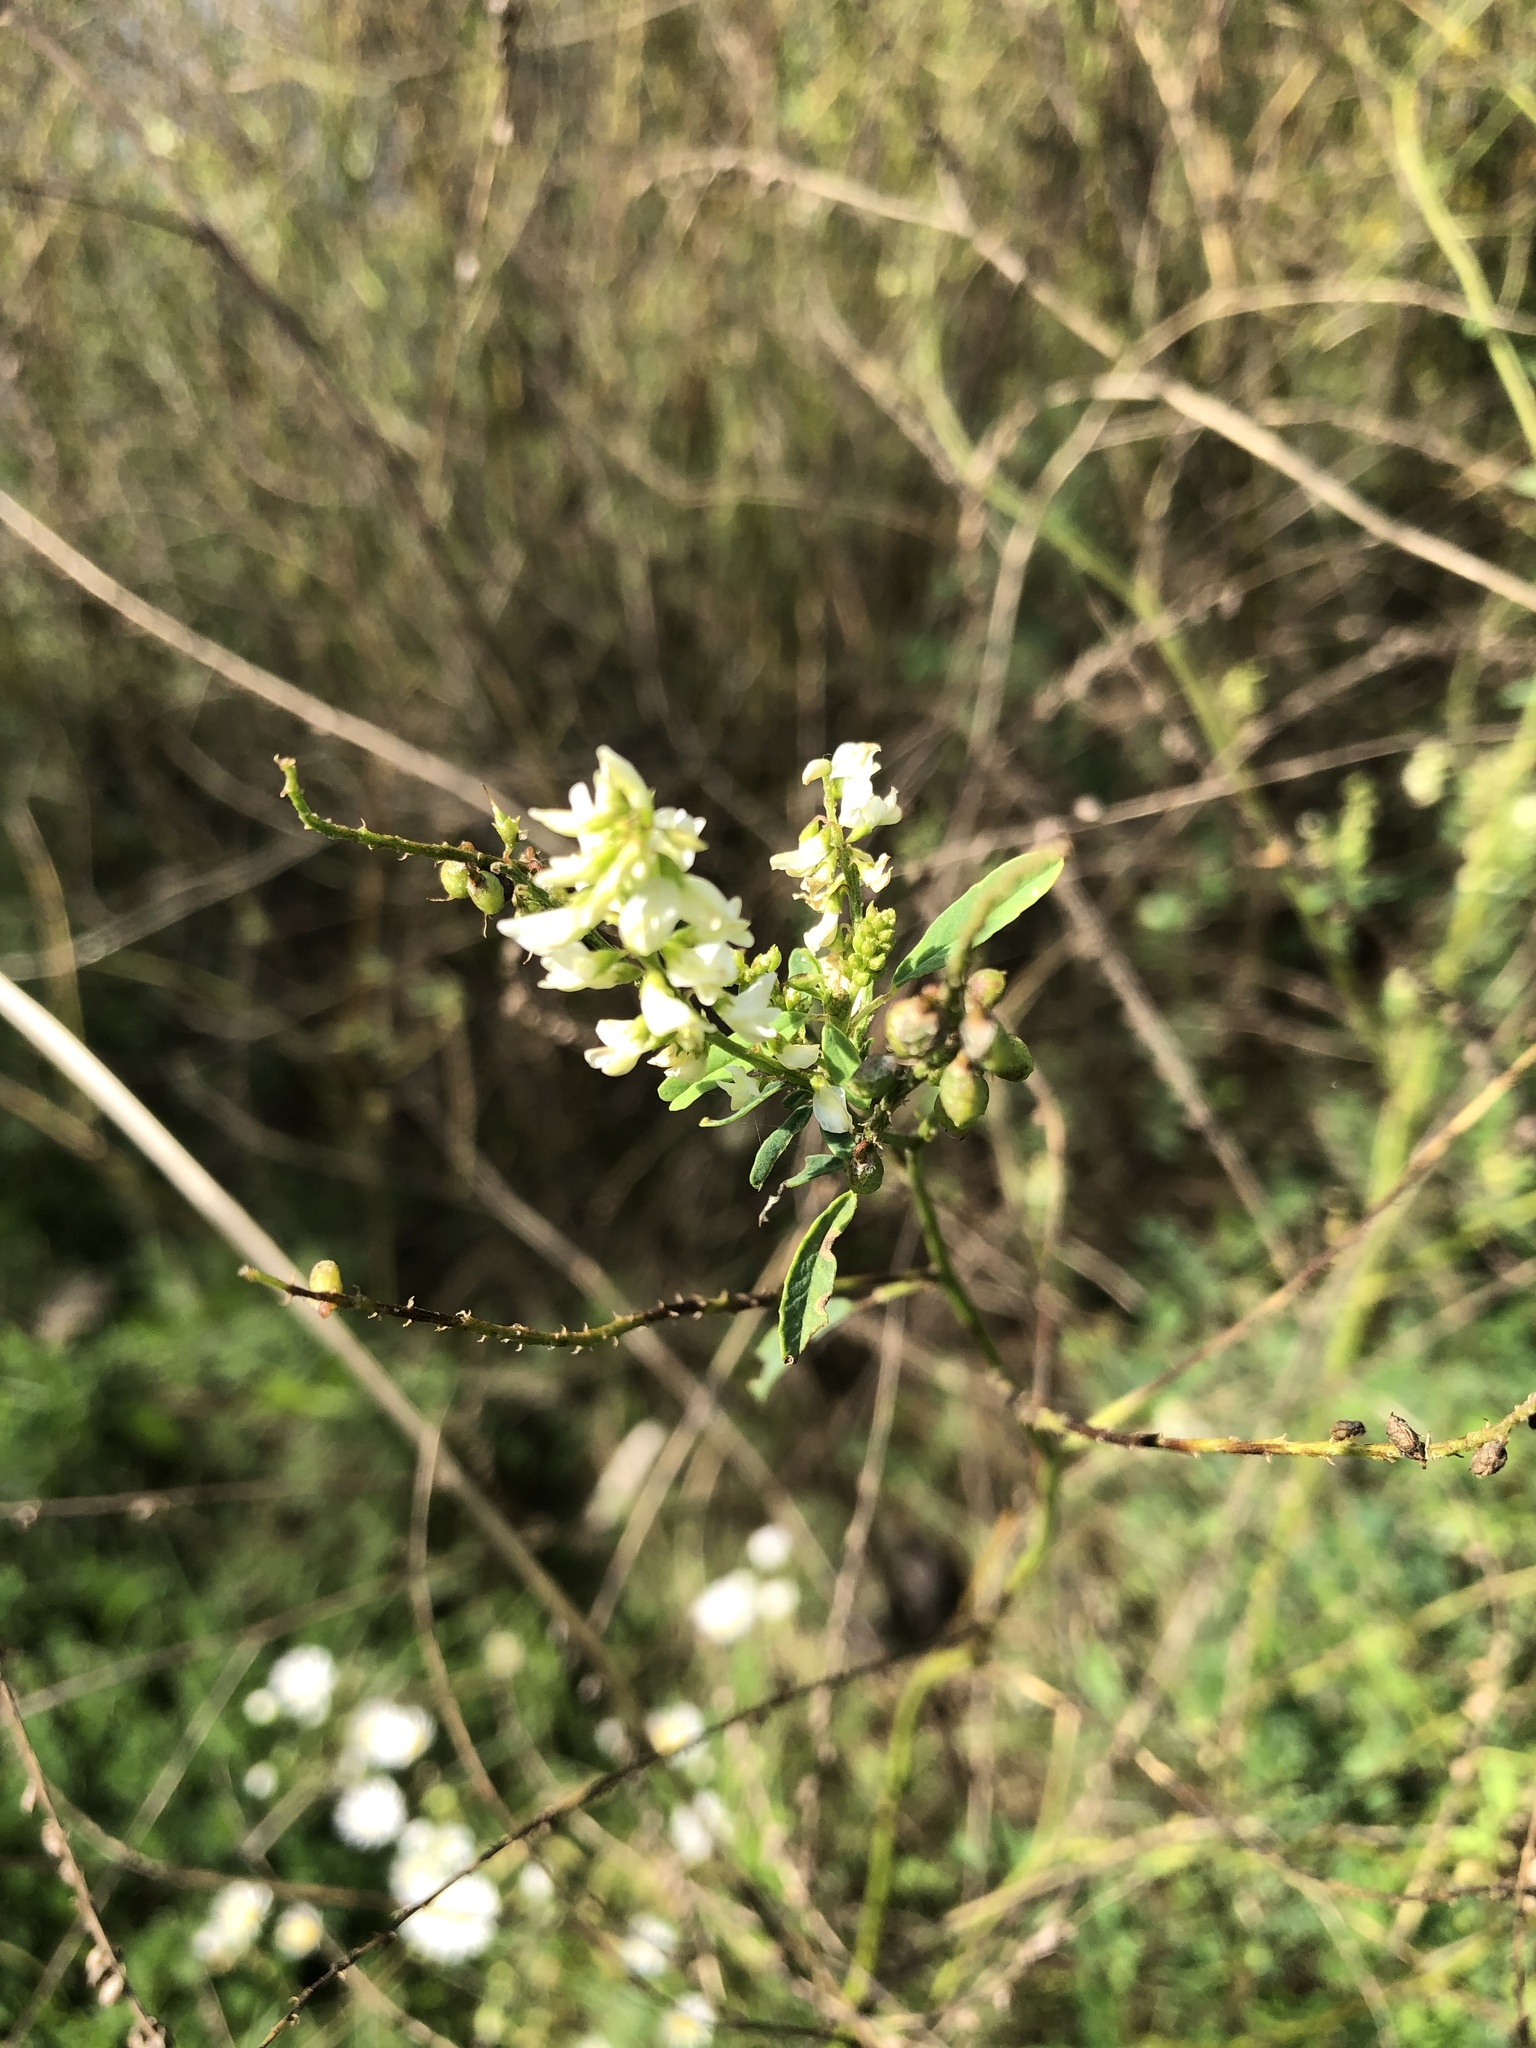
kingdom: Plantae
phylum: Tracheophyta
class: Magnoliopsida
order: Fabales
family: Fabaceae
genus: Melilotus
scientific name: Melilotus albus
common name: White melilot
